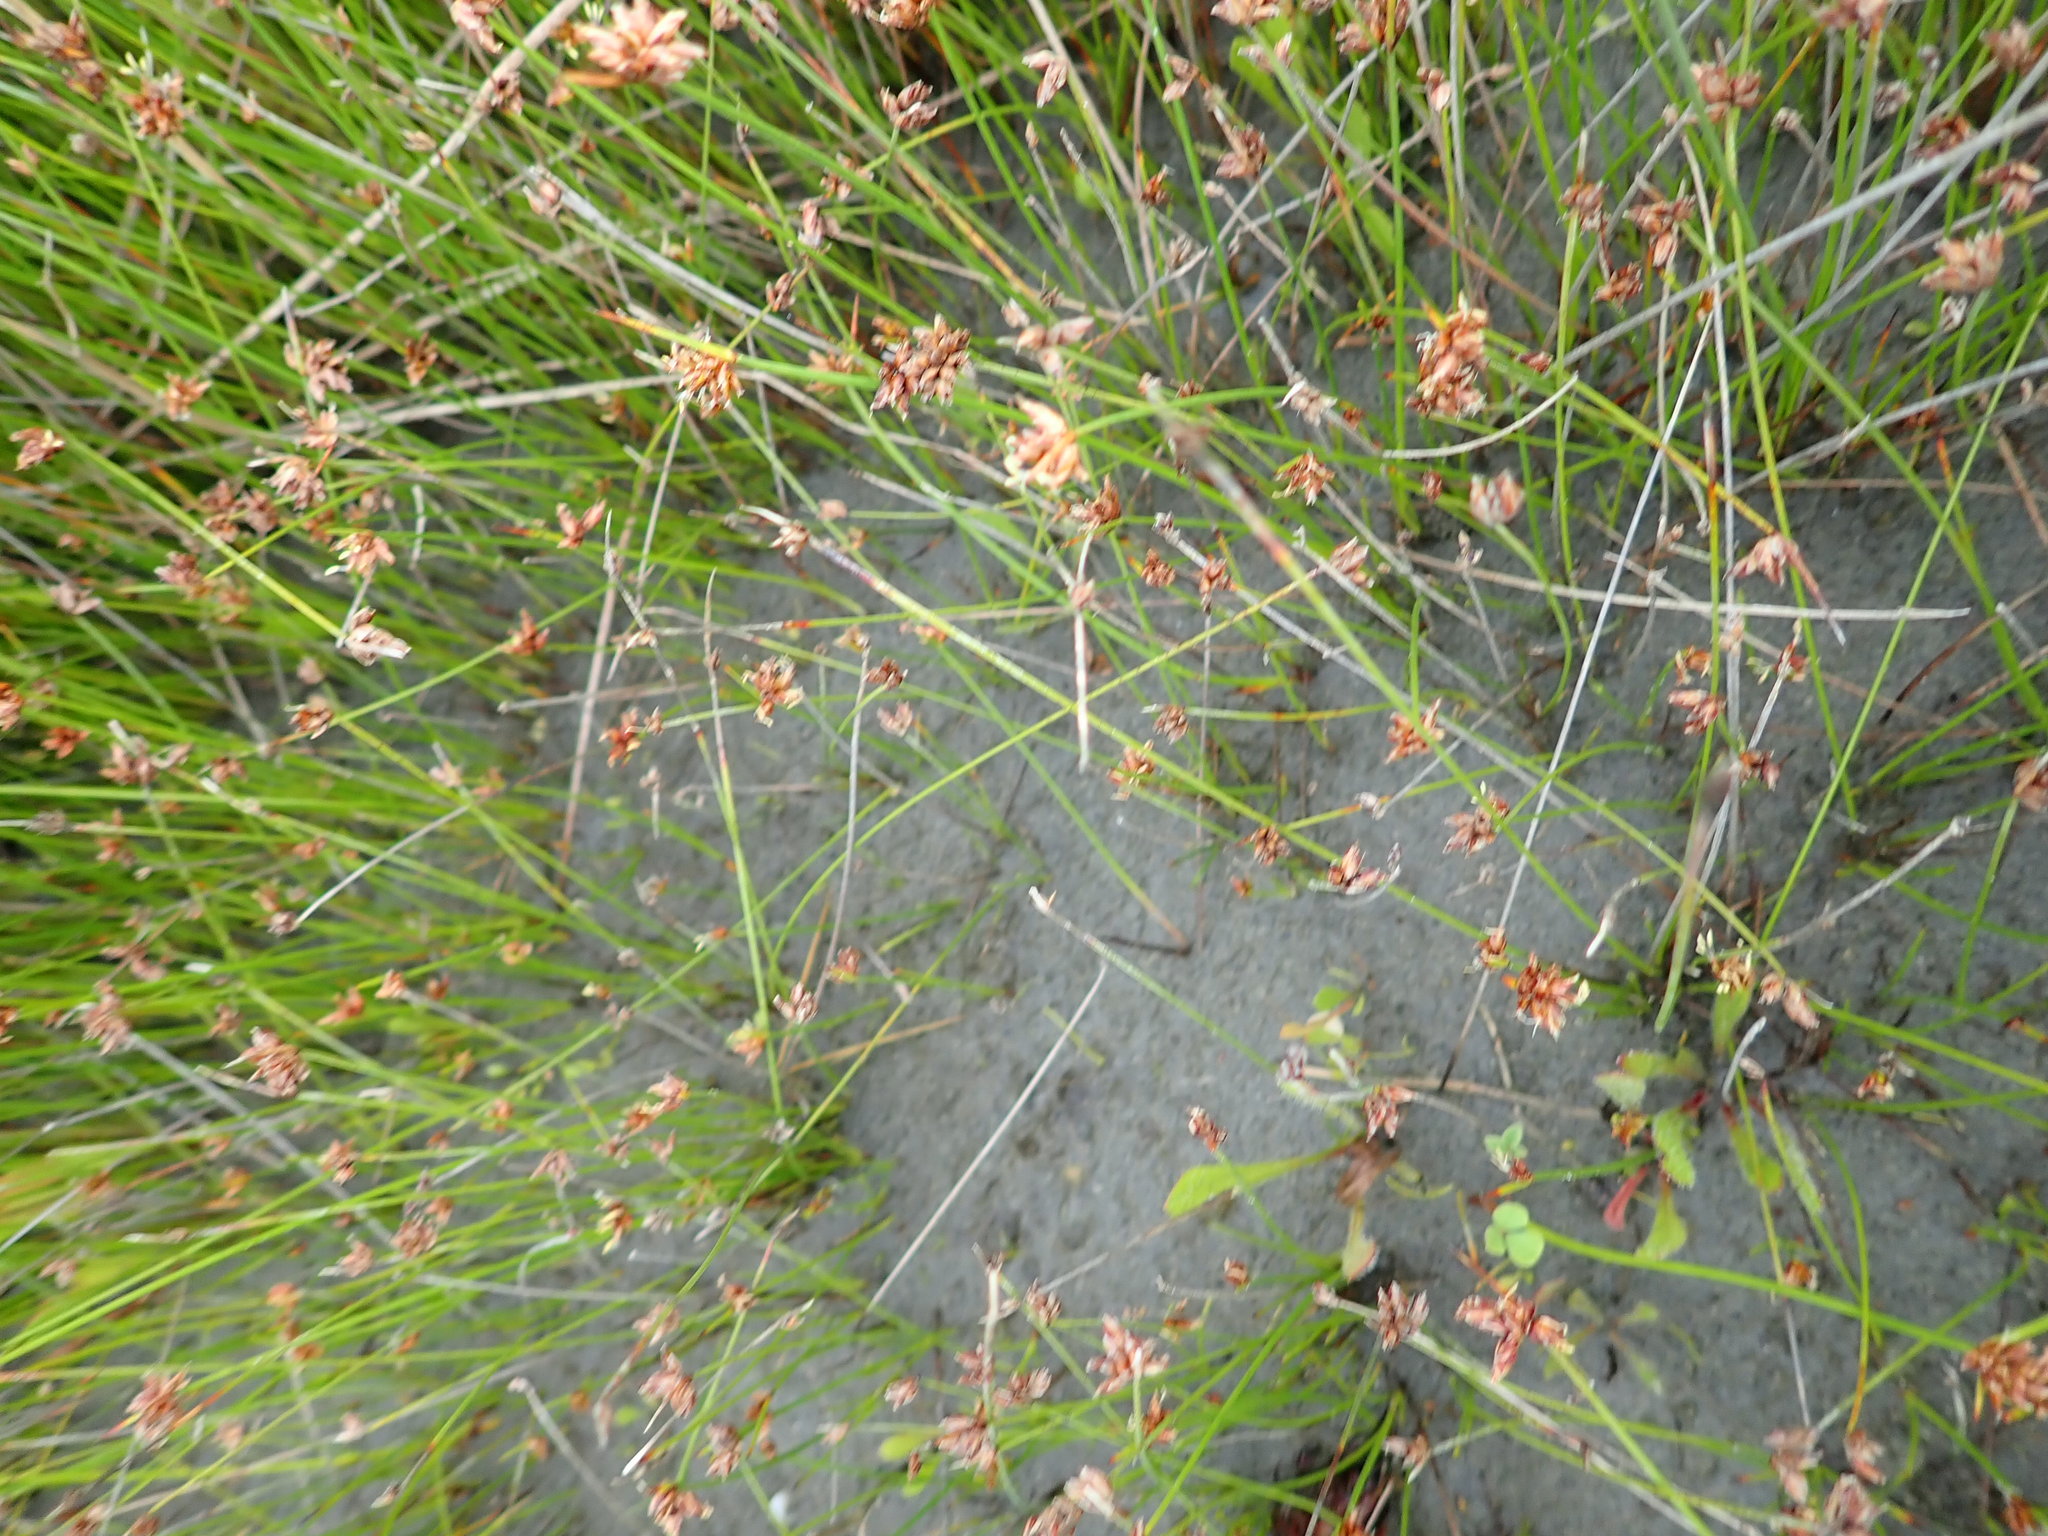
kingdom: Plantae
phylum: Tracheophyta
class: Liliopsida
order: Poales
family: Cyperaceae
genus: Schoenus
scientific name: Schoenus nitens
